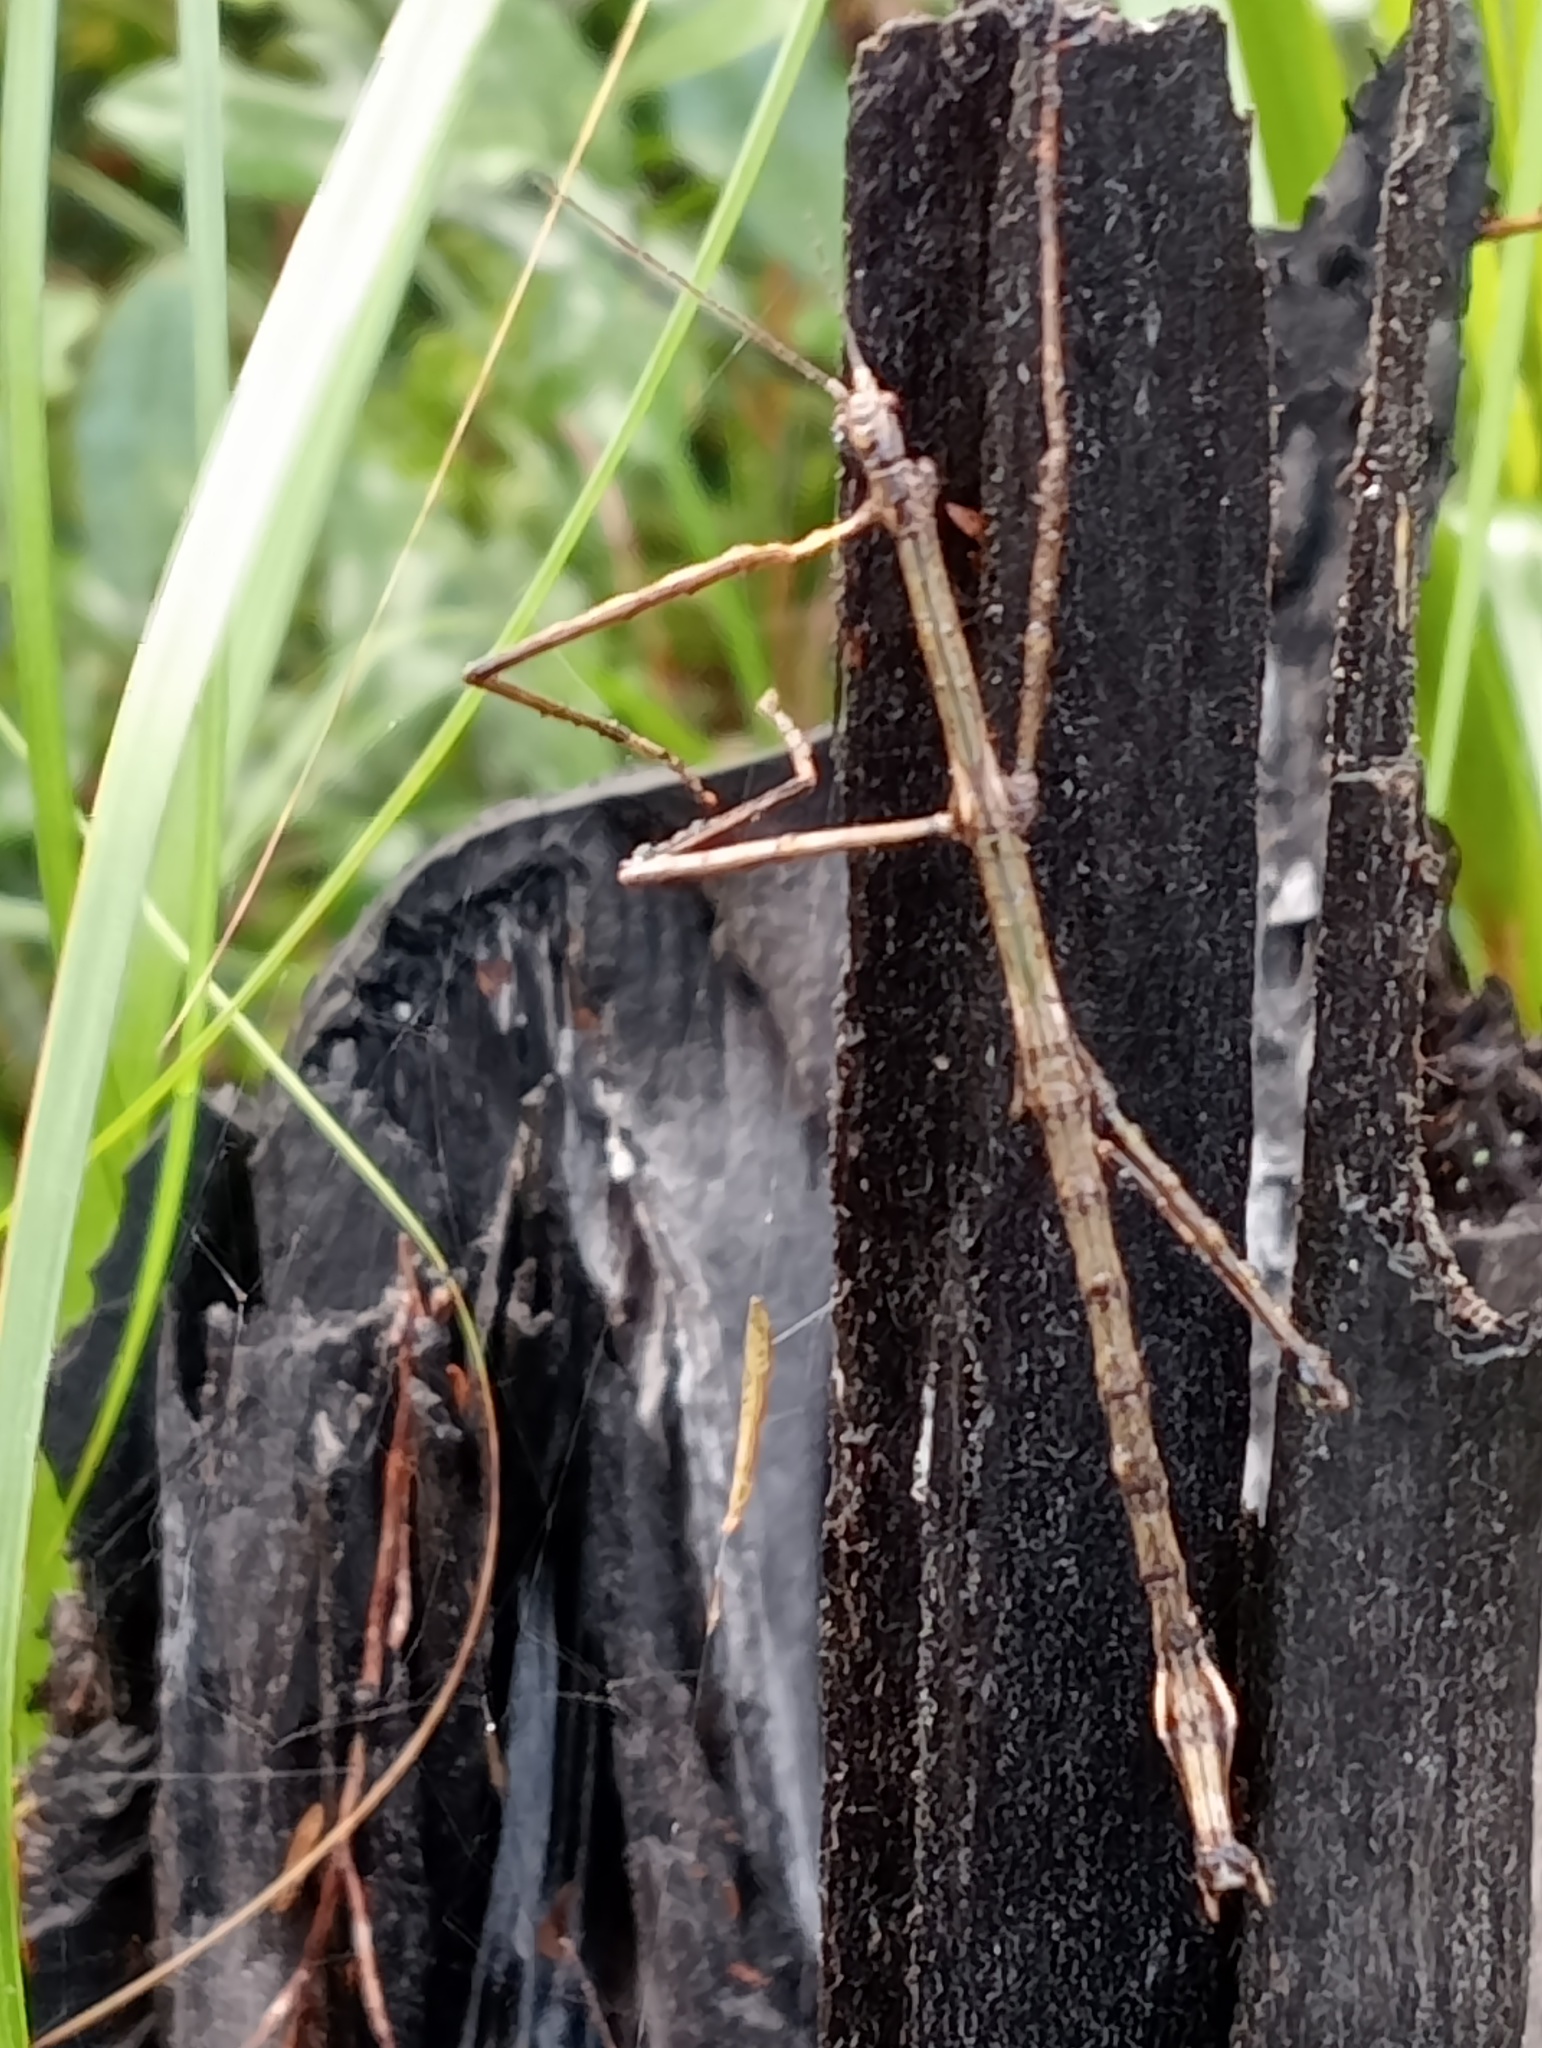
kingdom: Animalia
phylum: Arthropoda
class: Insecta
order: Phasmida
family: Phasmatidae
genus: Clitarchus
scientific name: Clitarchus hookeri
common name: Smooth stick insect
